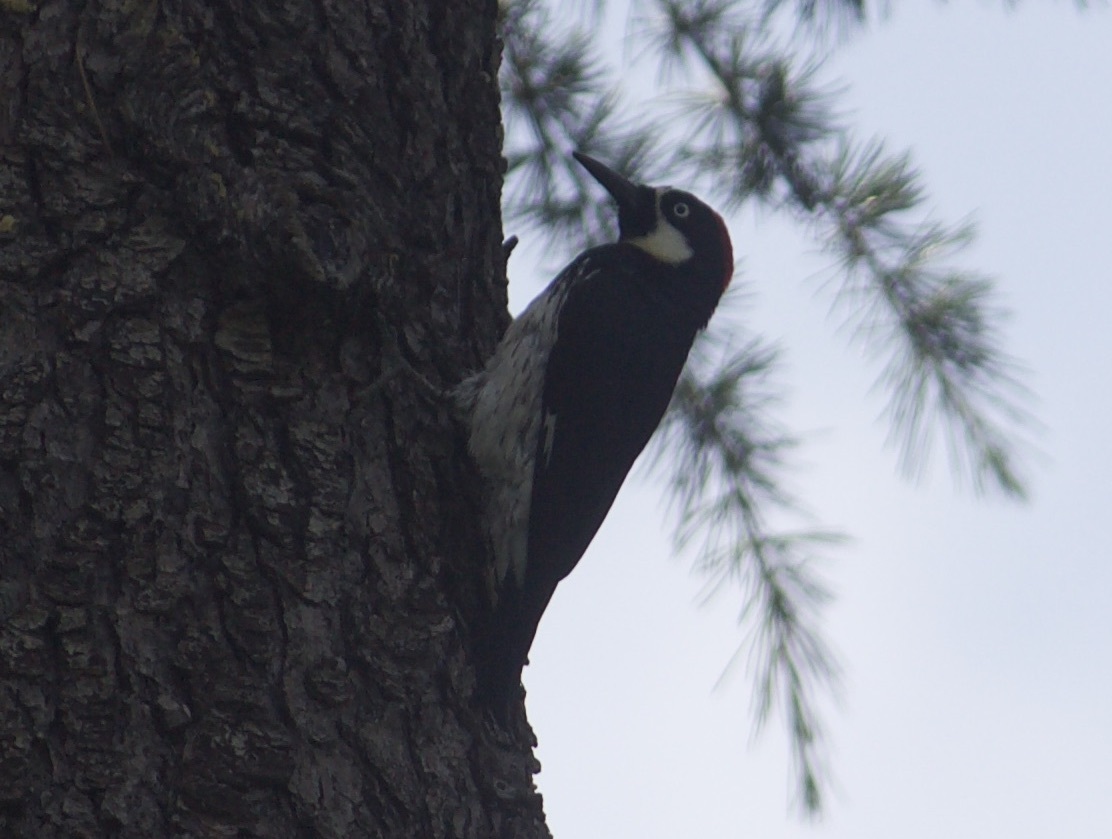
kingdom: Animalia
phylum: Chordata
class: Aves
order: Piciformes
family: Picidae
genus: Melanerpes
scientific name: Melanerpes formicivorus
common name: Acorn woodpecker
